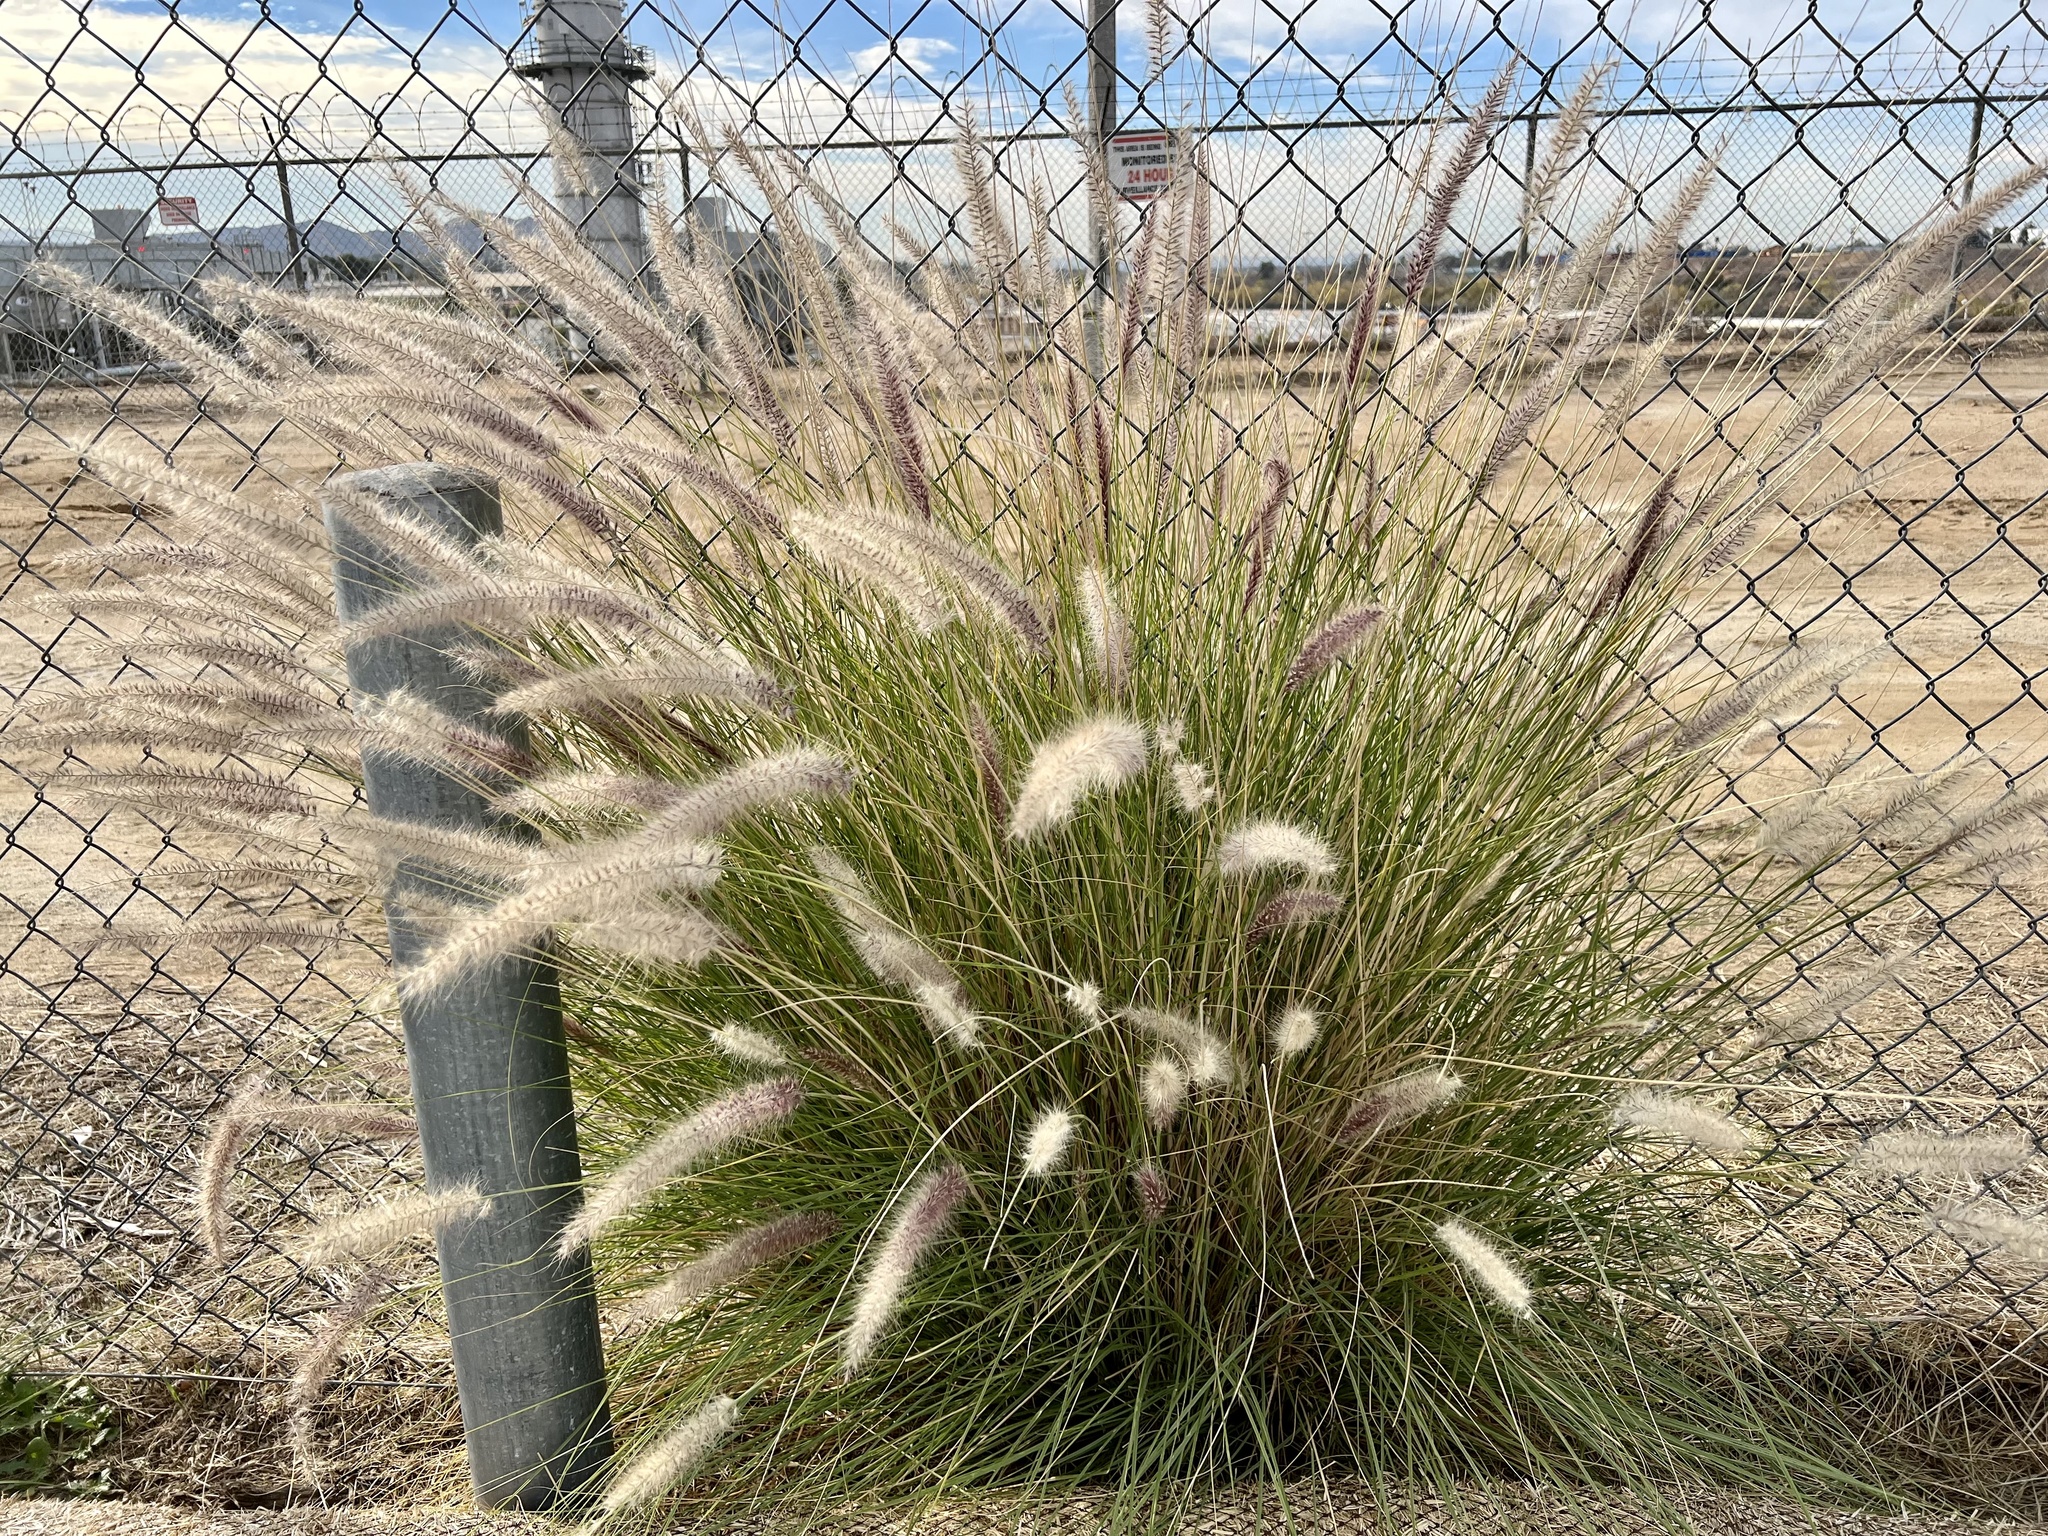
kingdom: Plantae
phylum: Tracheophyta
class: Liliopsida
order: Poales
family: Poaceae
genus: Cenchrus
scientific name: Cenchrus setaceus
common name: Crimson fountaingrass
